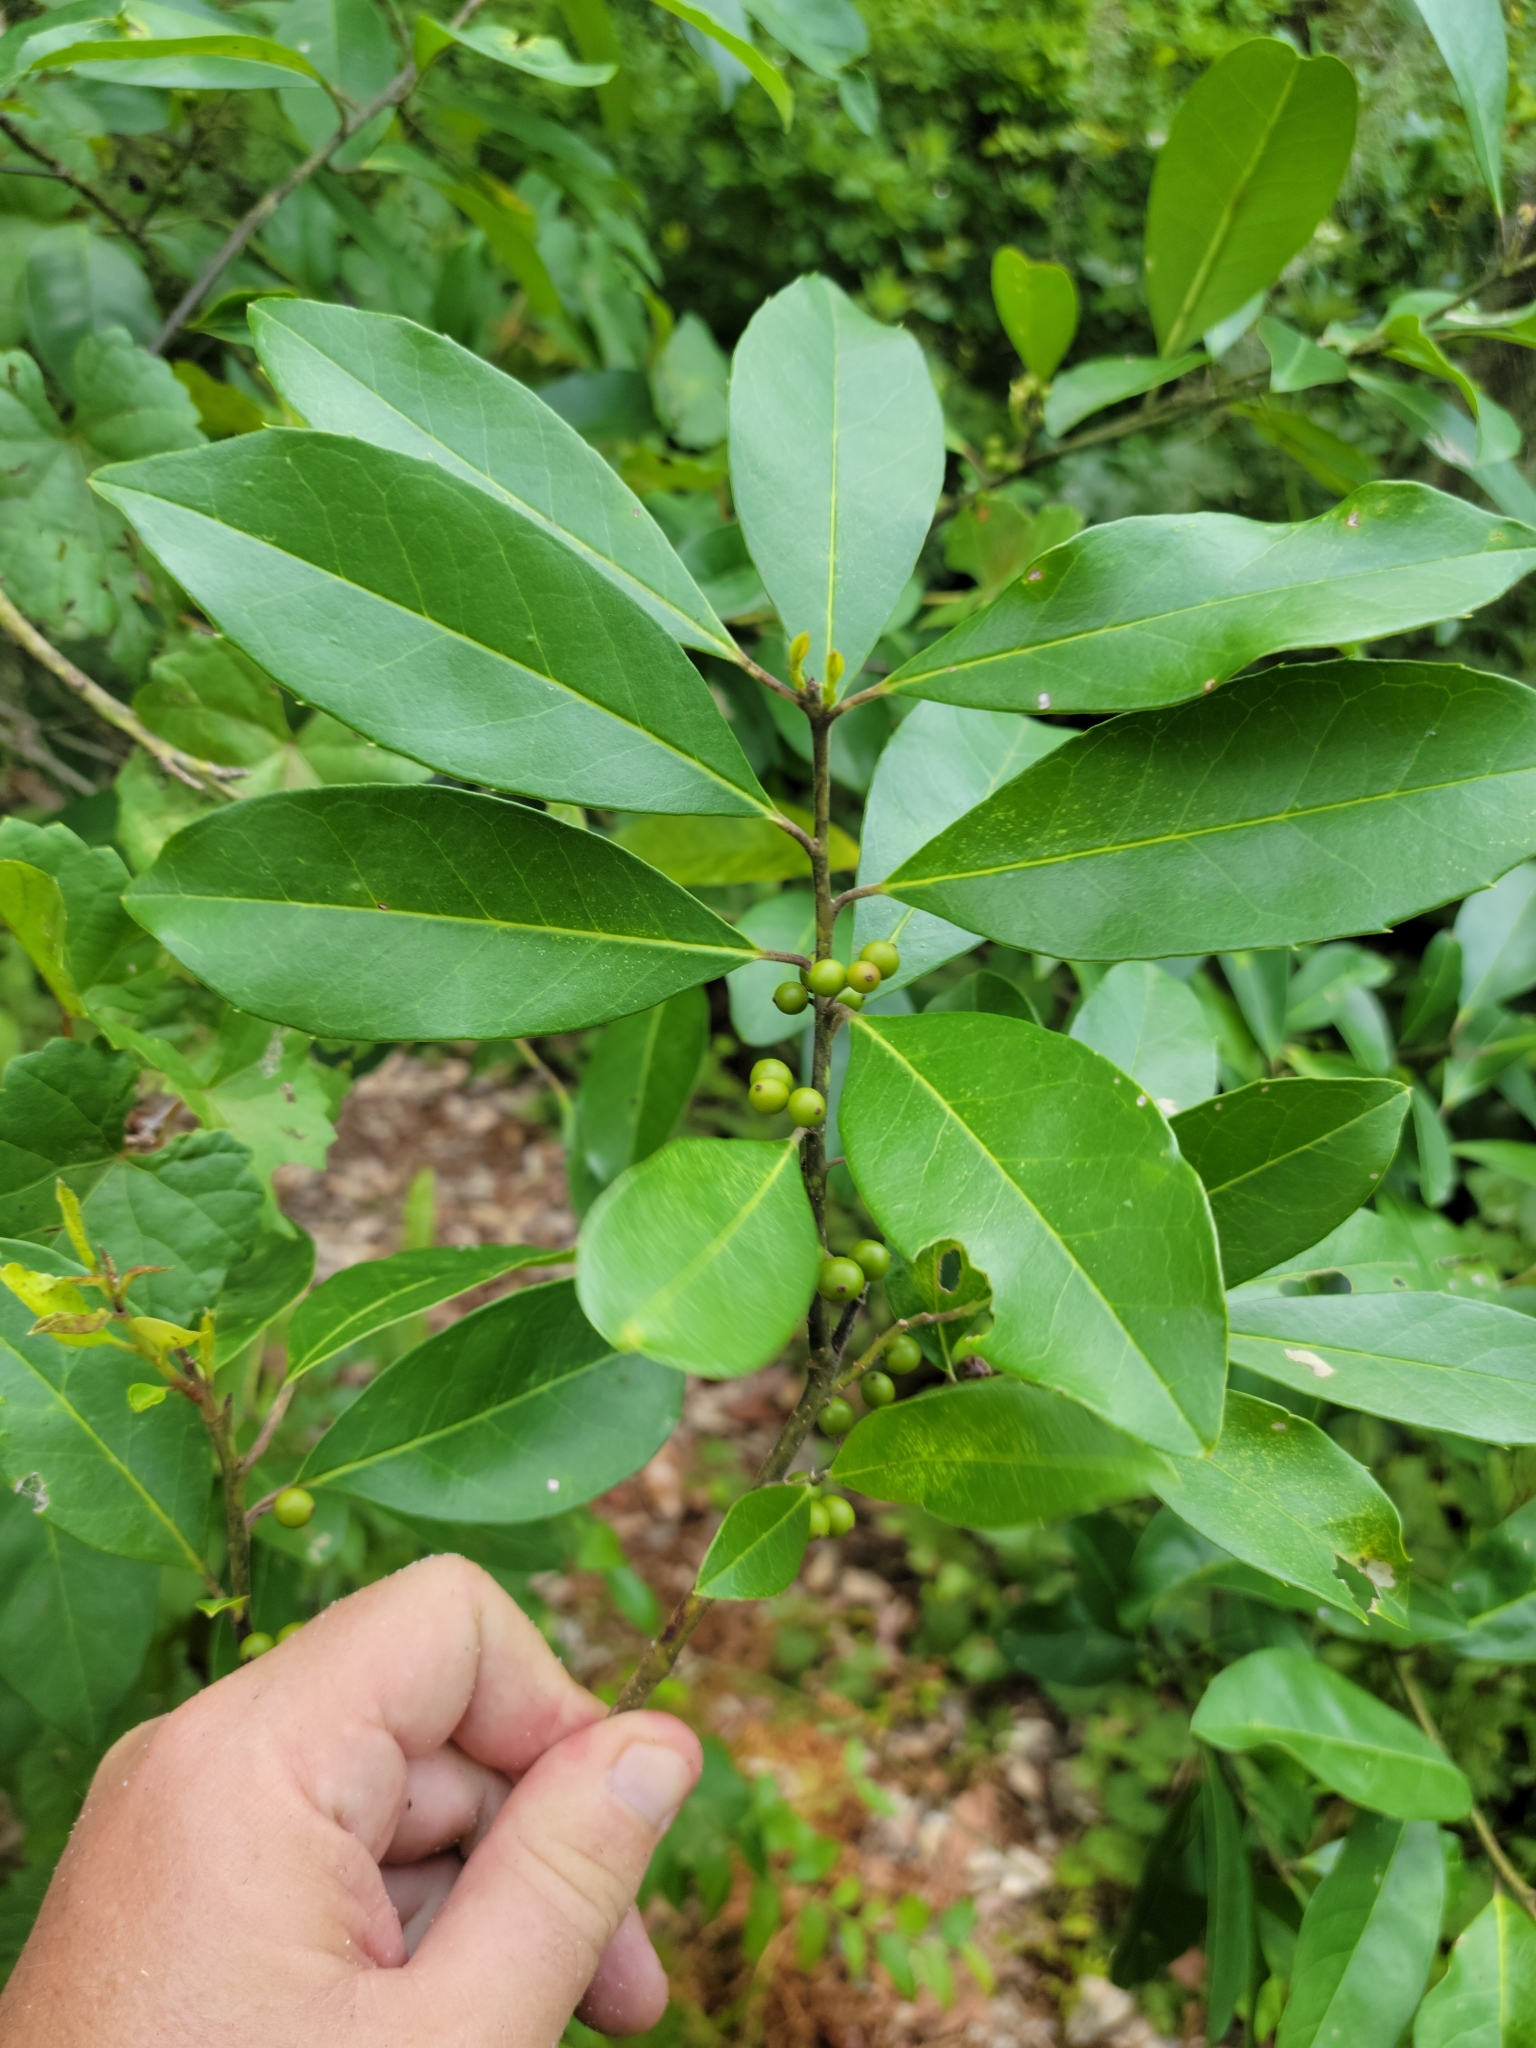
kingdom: Plantae
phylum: Tracheophyta
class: Magnoliopsida
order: Aquifoliales
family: Aquifoliaceae
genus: Ilex
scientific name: Ilex cassine
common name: Dahoon
